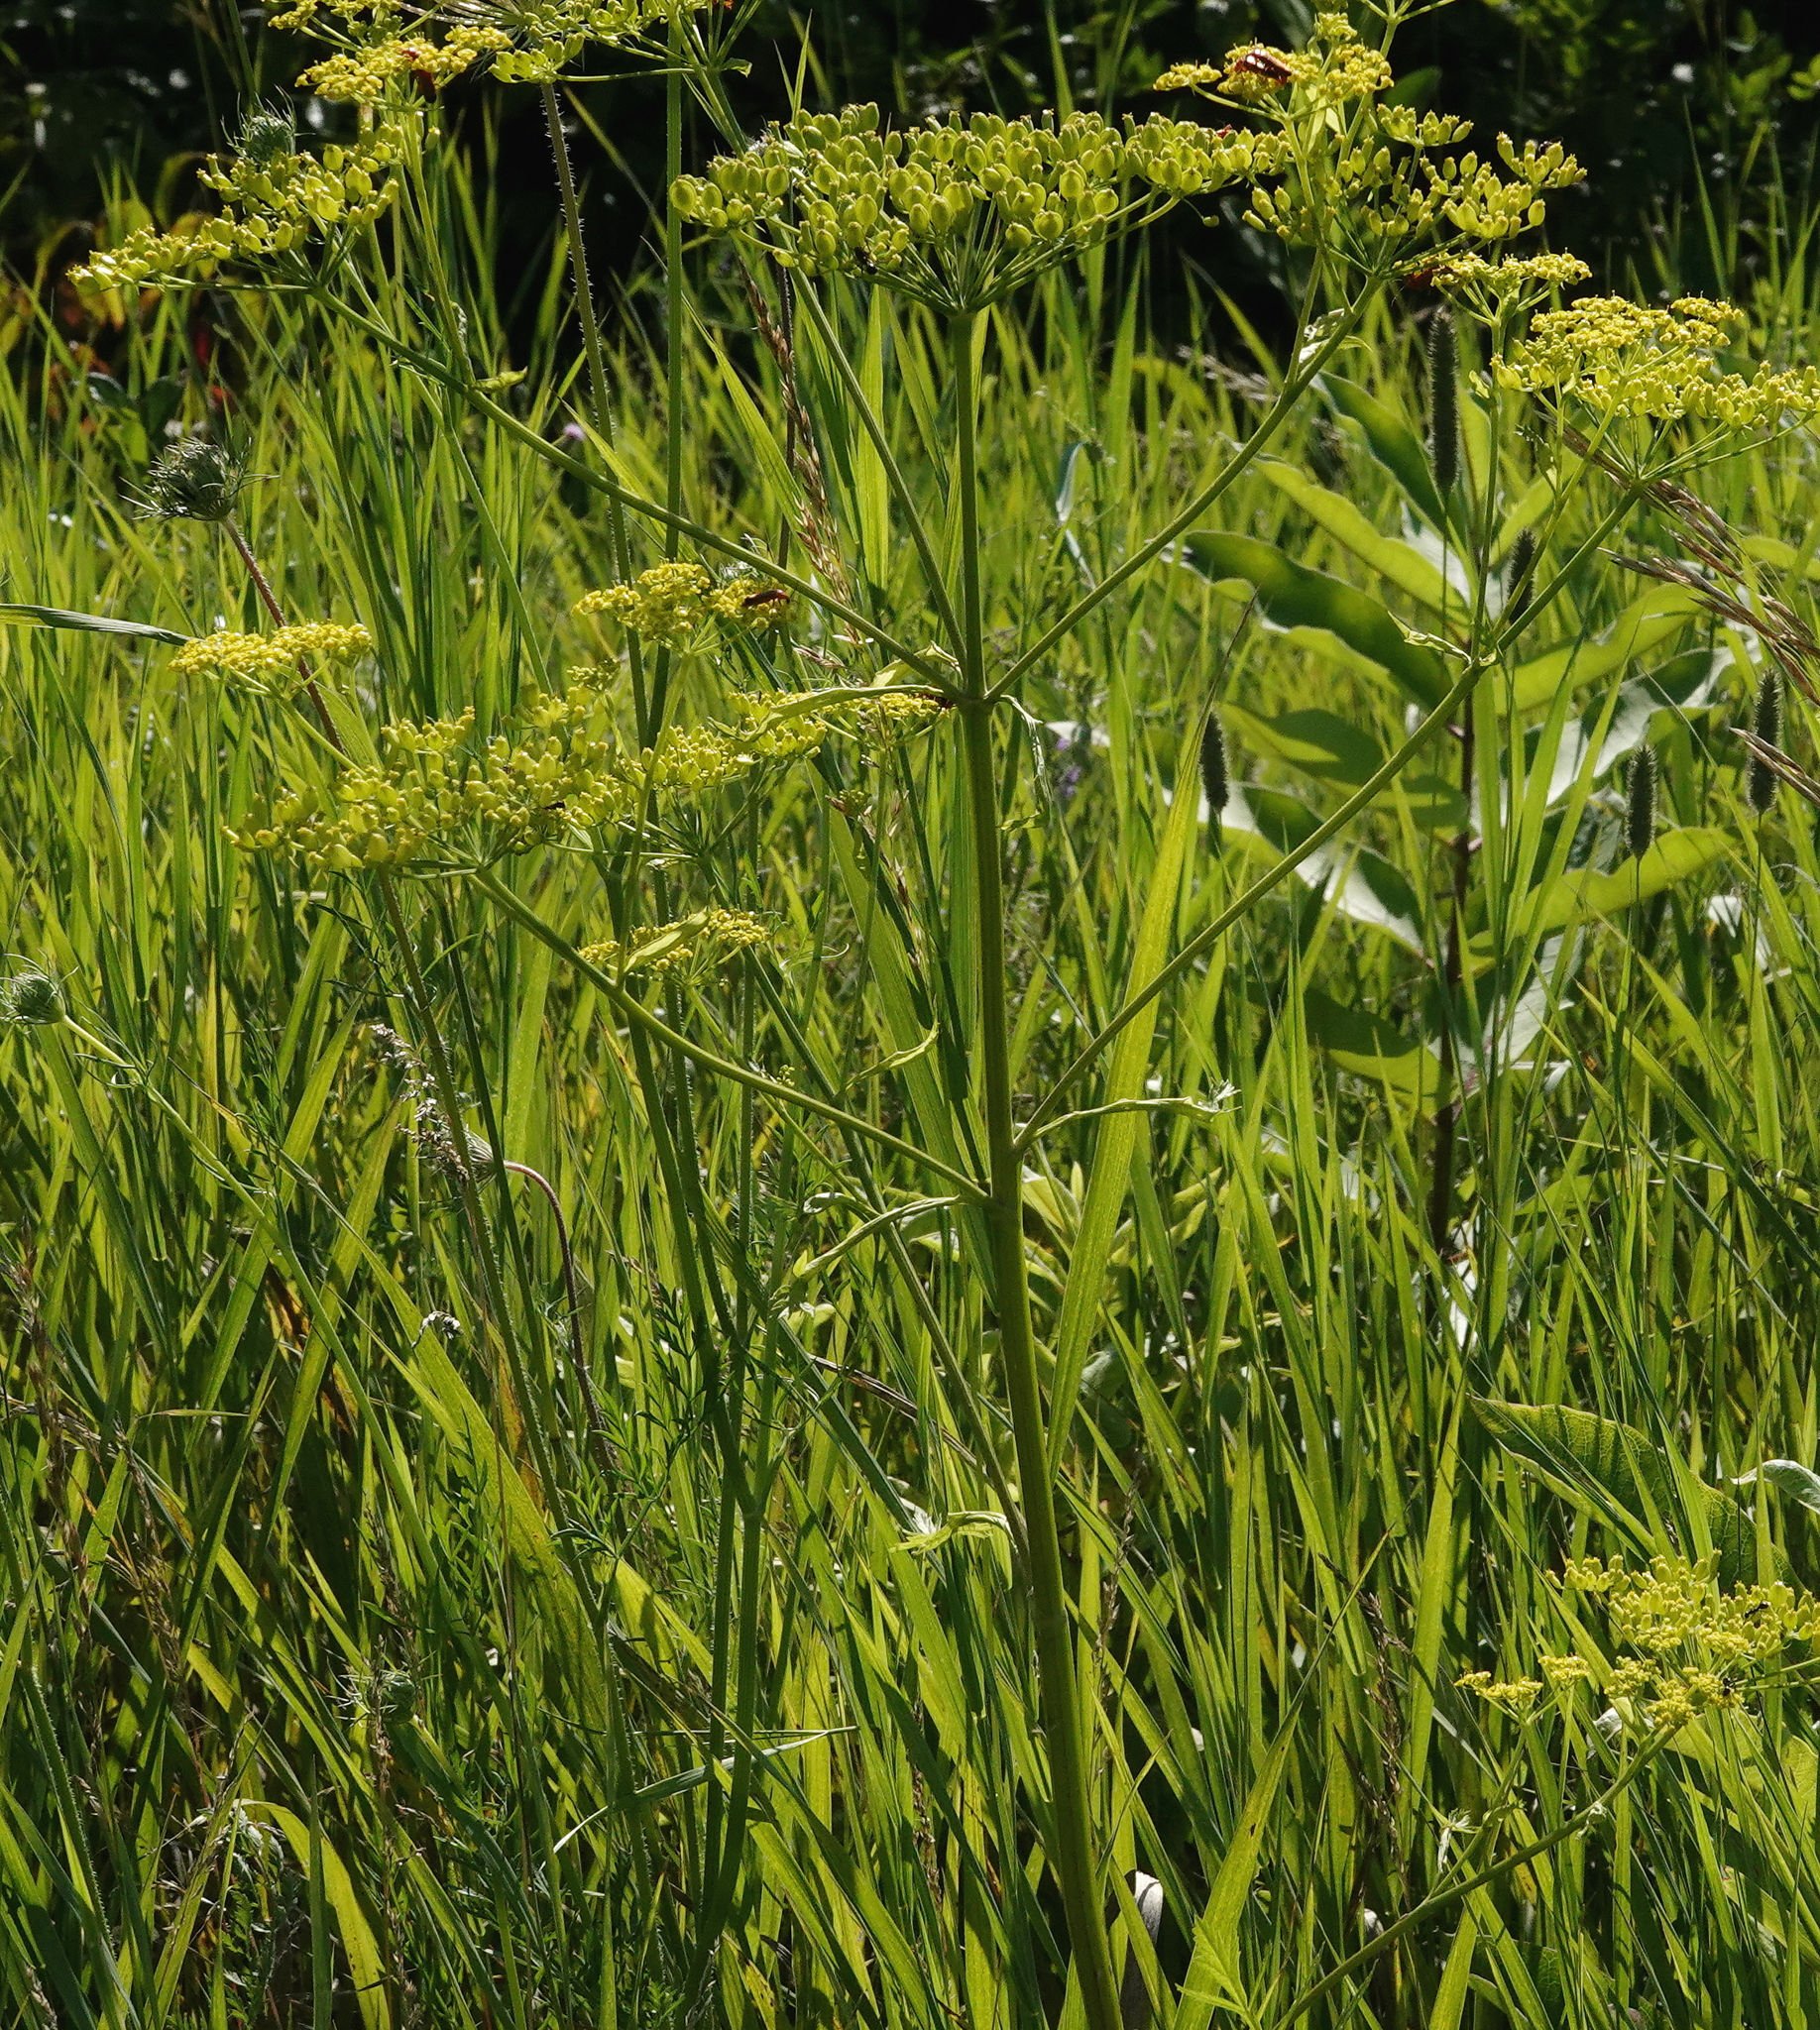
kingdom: Plantae
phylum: Tracheophyta
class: Magnoliopsida
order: Apiales
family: Apiaceae
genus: Pastinaca
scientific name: Pastinaca sativa
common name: Wild parsnip
